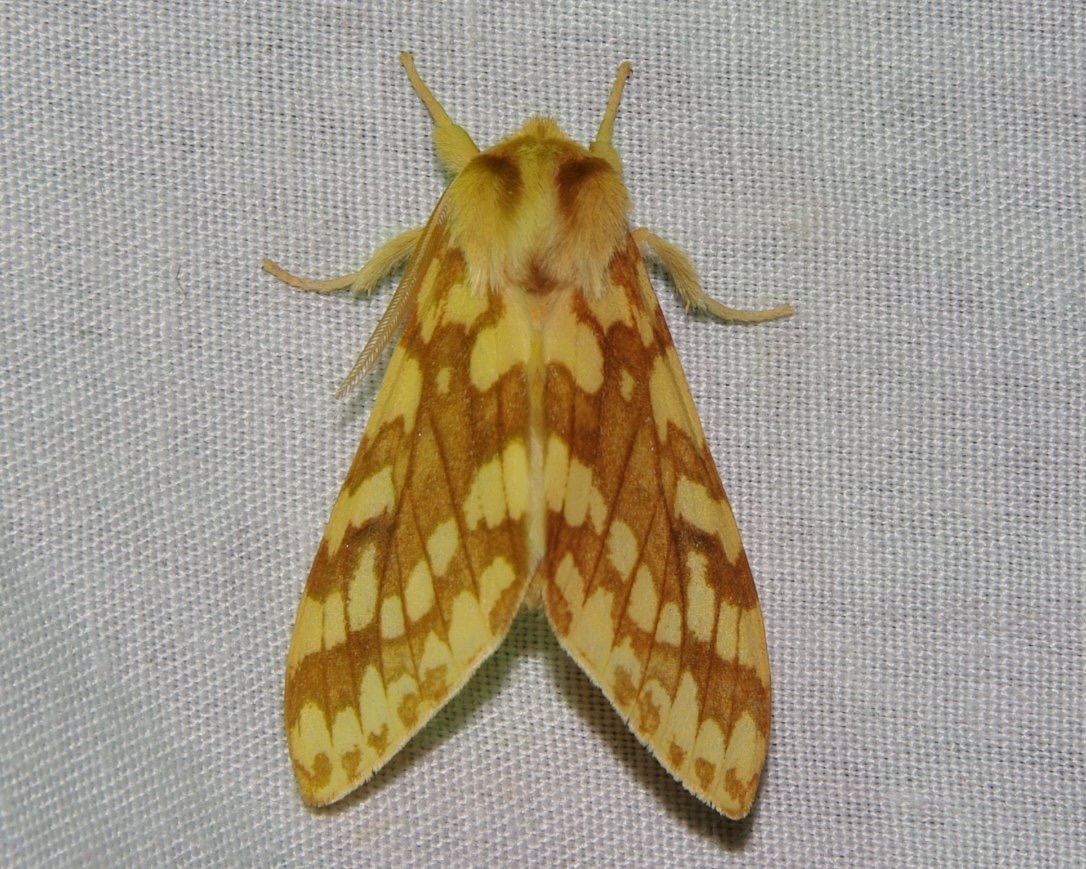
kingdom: Animalia
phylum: Arthropoda
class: Insecta
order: Lepidoptera
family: Erebidae
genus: Lophocampa
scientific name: Lophocampa maculata
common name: Spotted tussock moth
